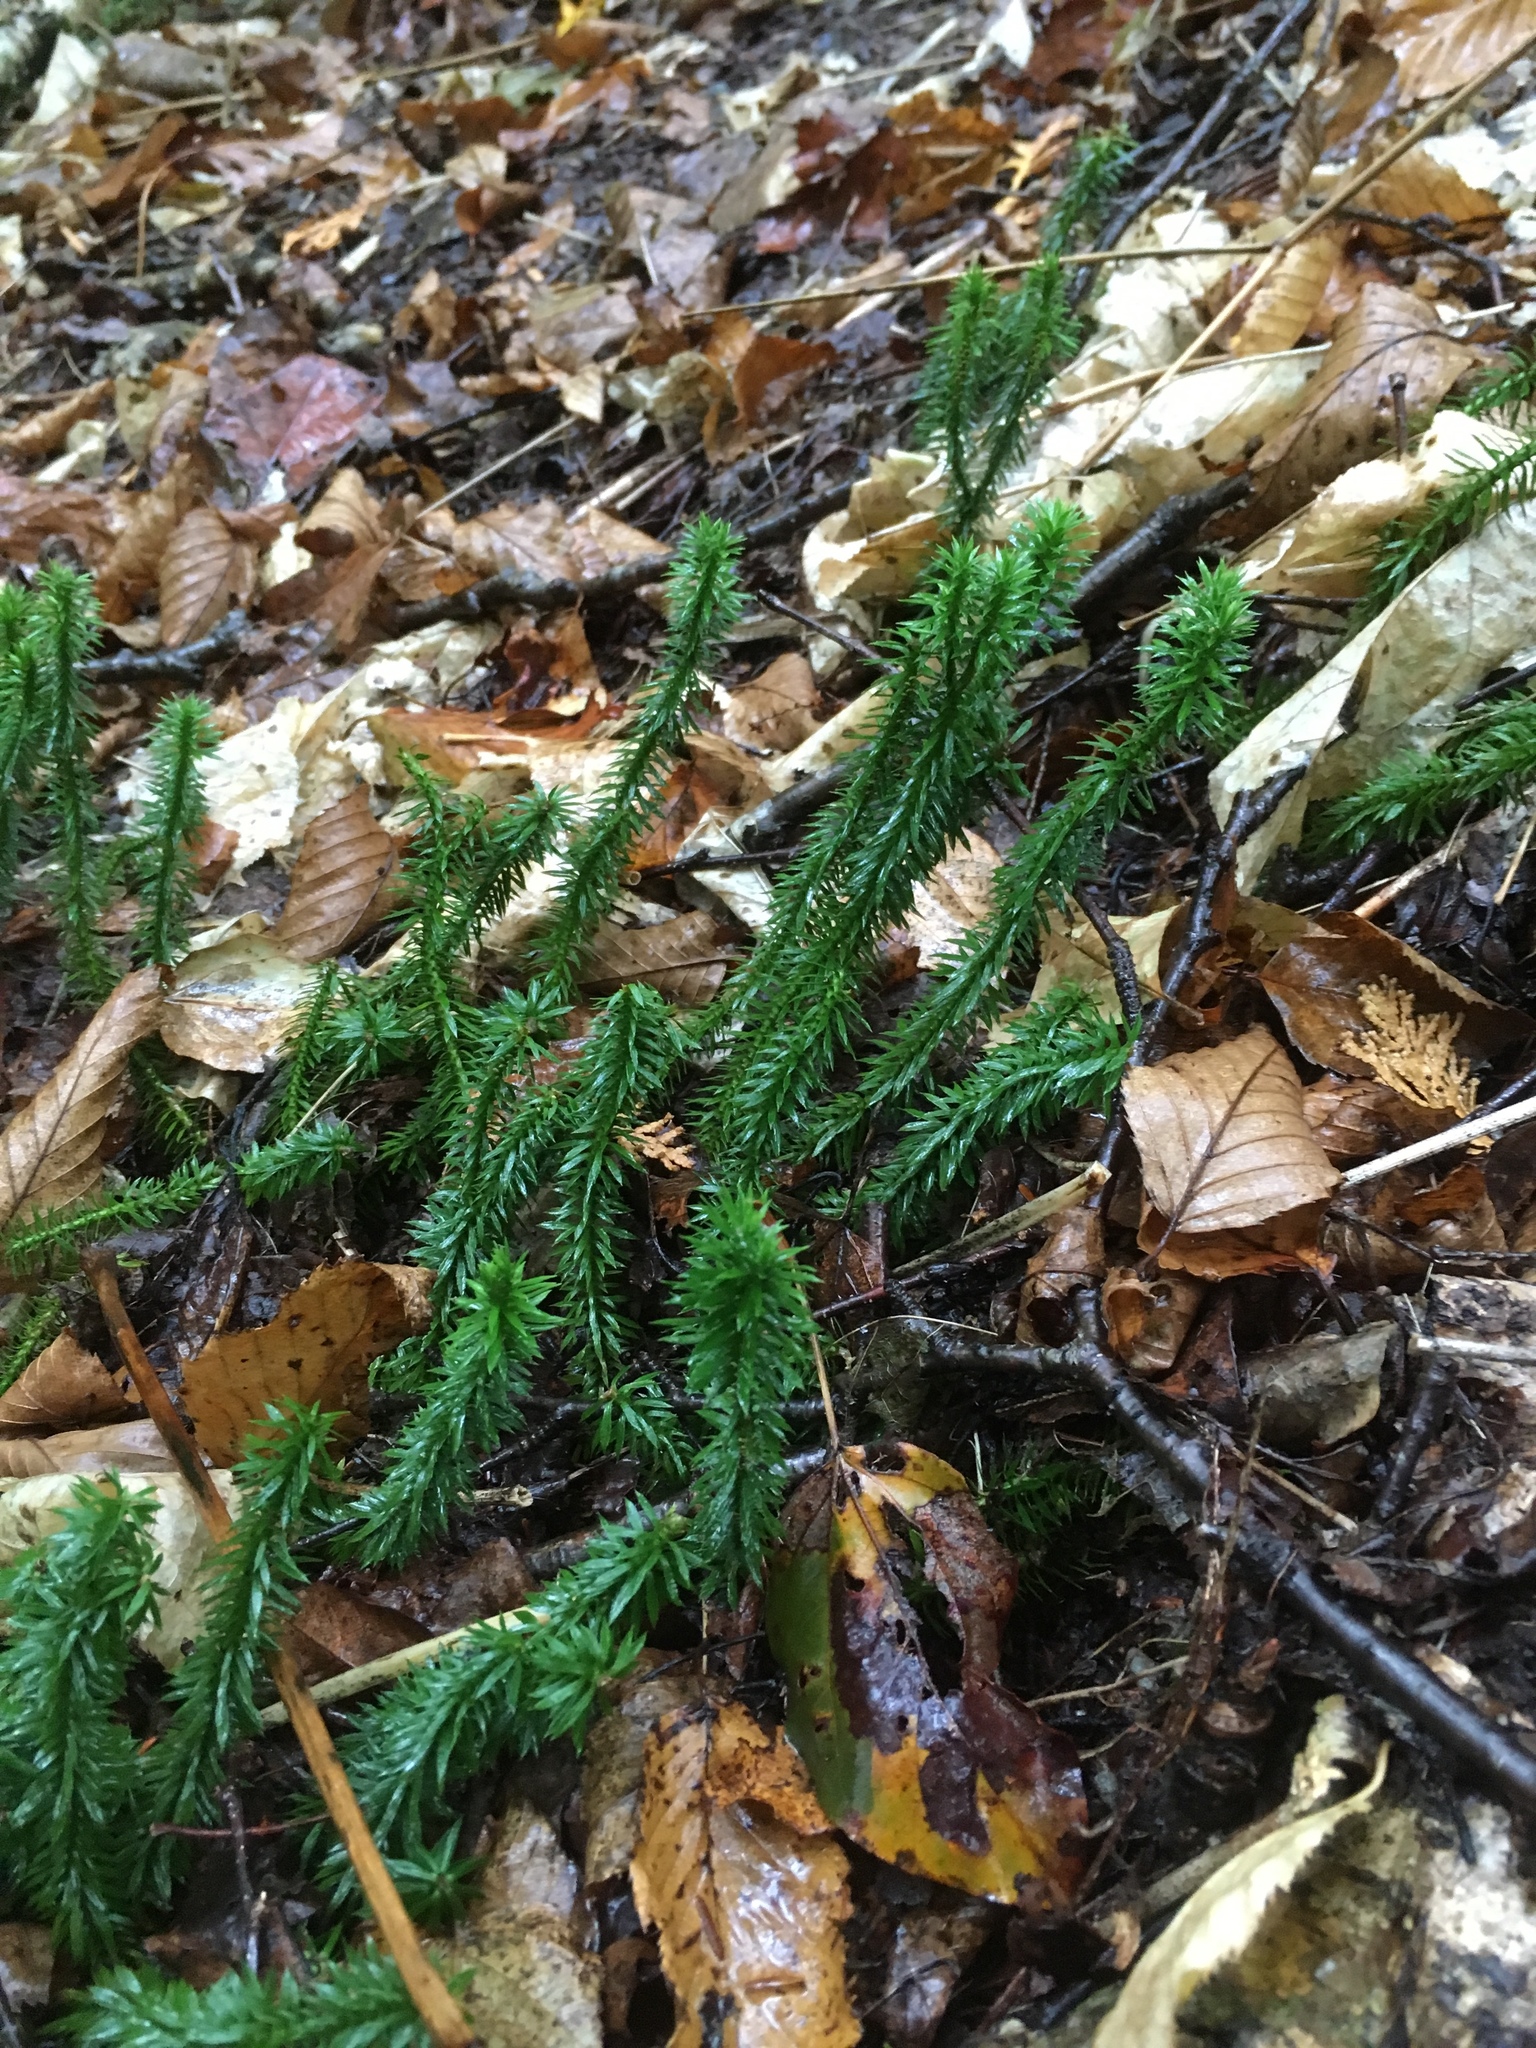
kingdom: Plantae
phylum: Tracheophyta
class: Lycopodiopsida
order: Lycopodiales
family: Lycopodiaceae
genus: Huperzia
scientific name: Huperzia lucidula
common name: Shining clubmoss
